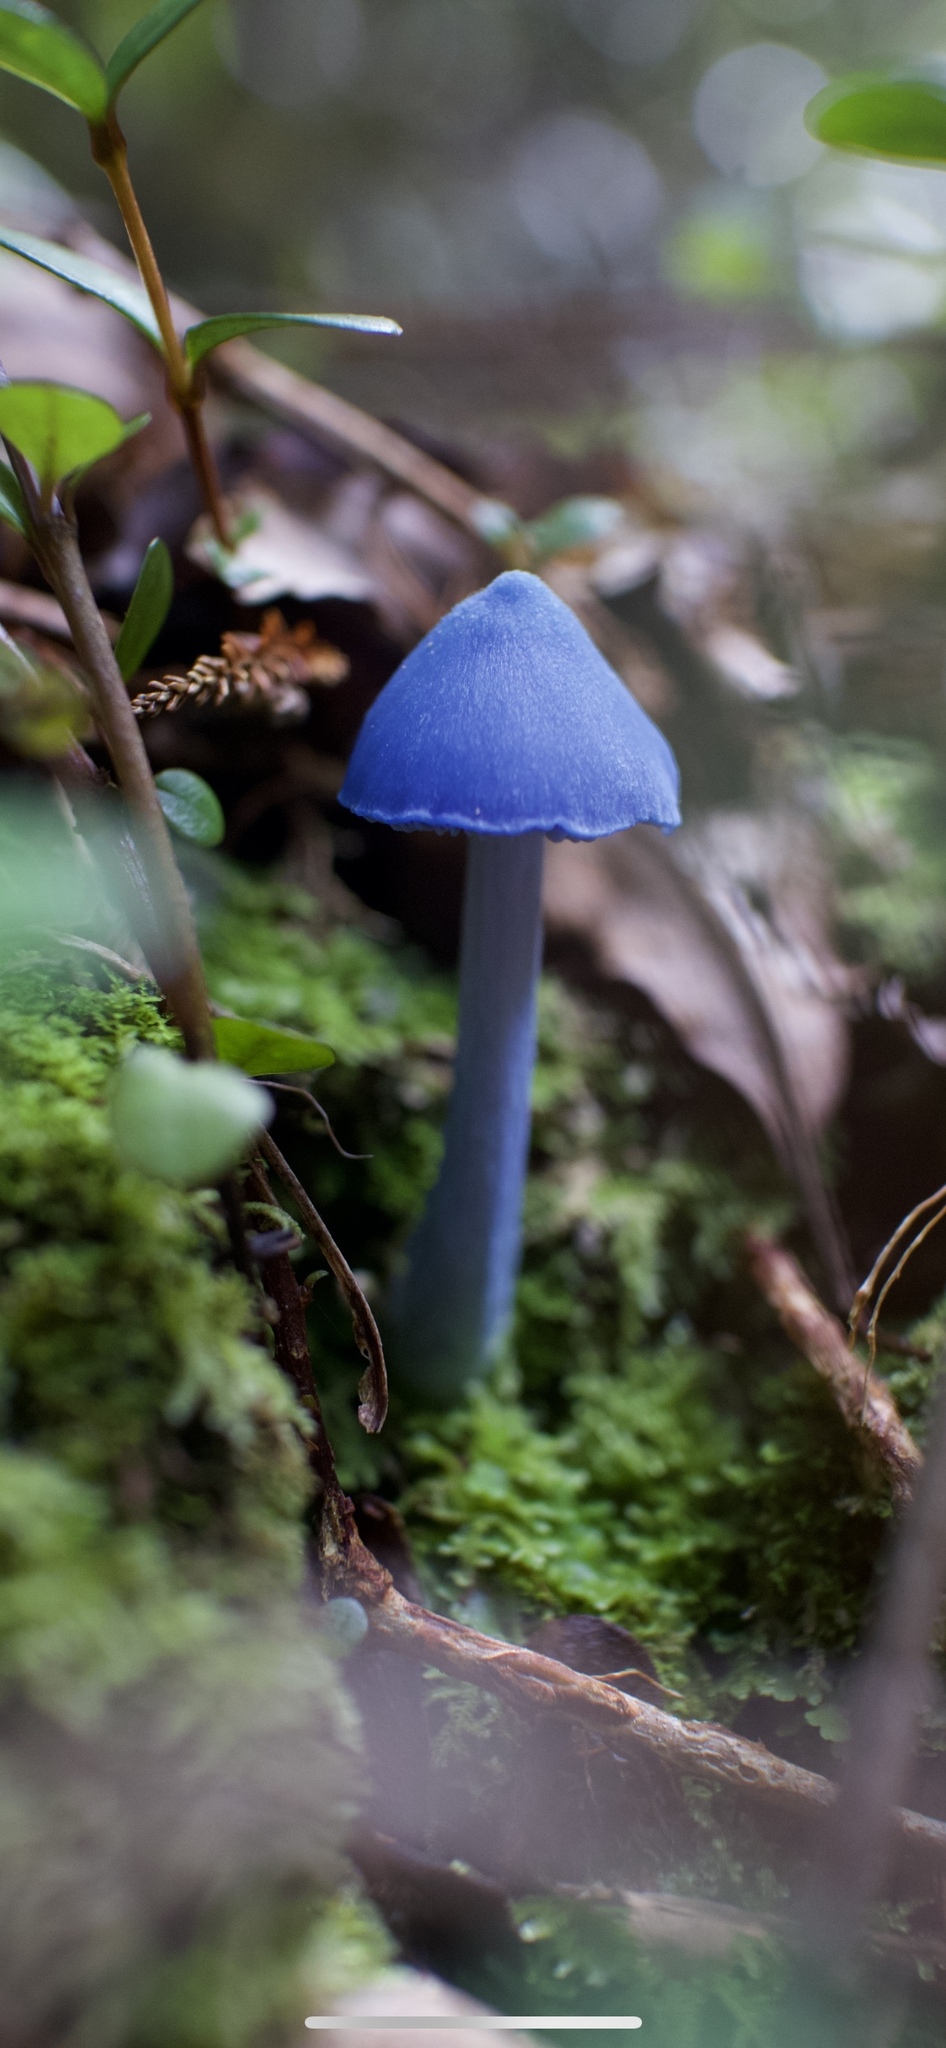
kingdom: Fungi
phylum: Basidiomycota
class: Agaricomycetes
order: Agaricales
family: Entolomataceae
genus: Entoloma
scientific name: Entoloma hochstetteri
